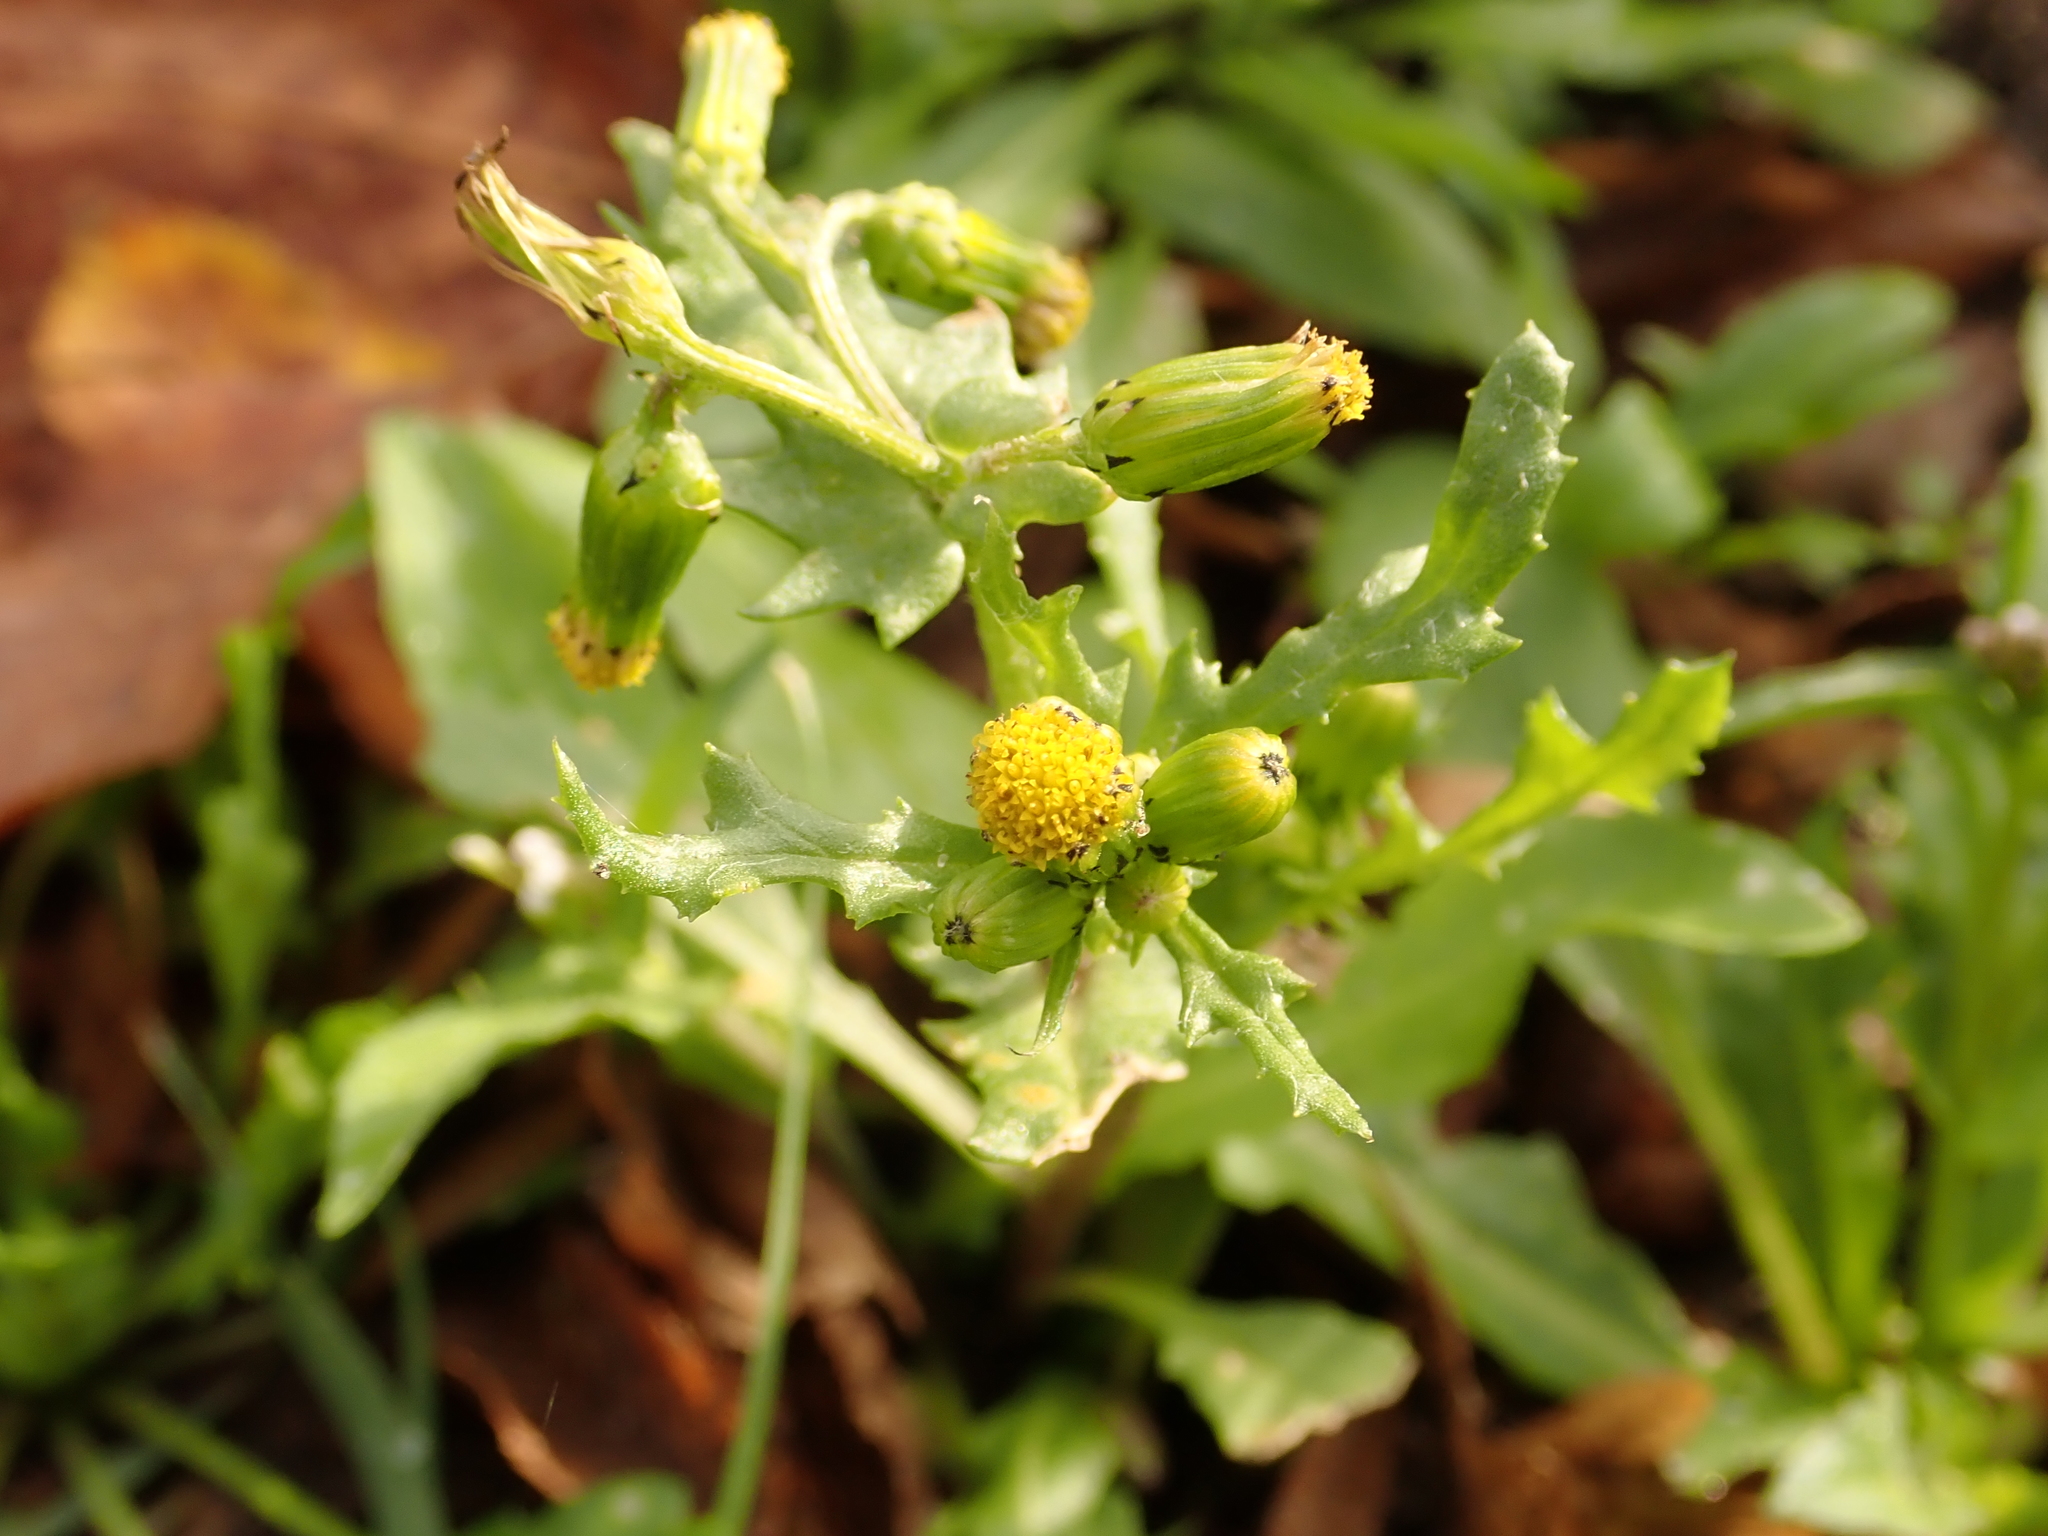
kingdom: Plantae
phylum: Tracheophyta
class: Magnoliopsida
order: Asterales
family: Asteraceae
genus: Senecio
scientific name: Senecio vulgaris
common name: Old-man-in-the-spring
